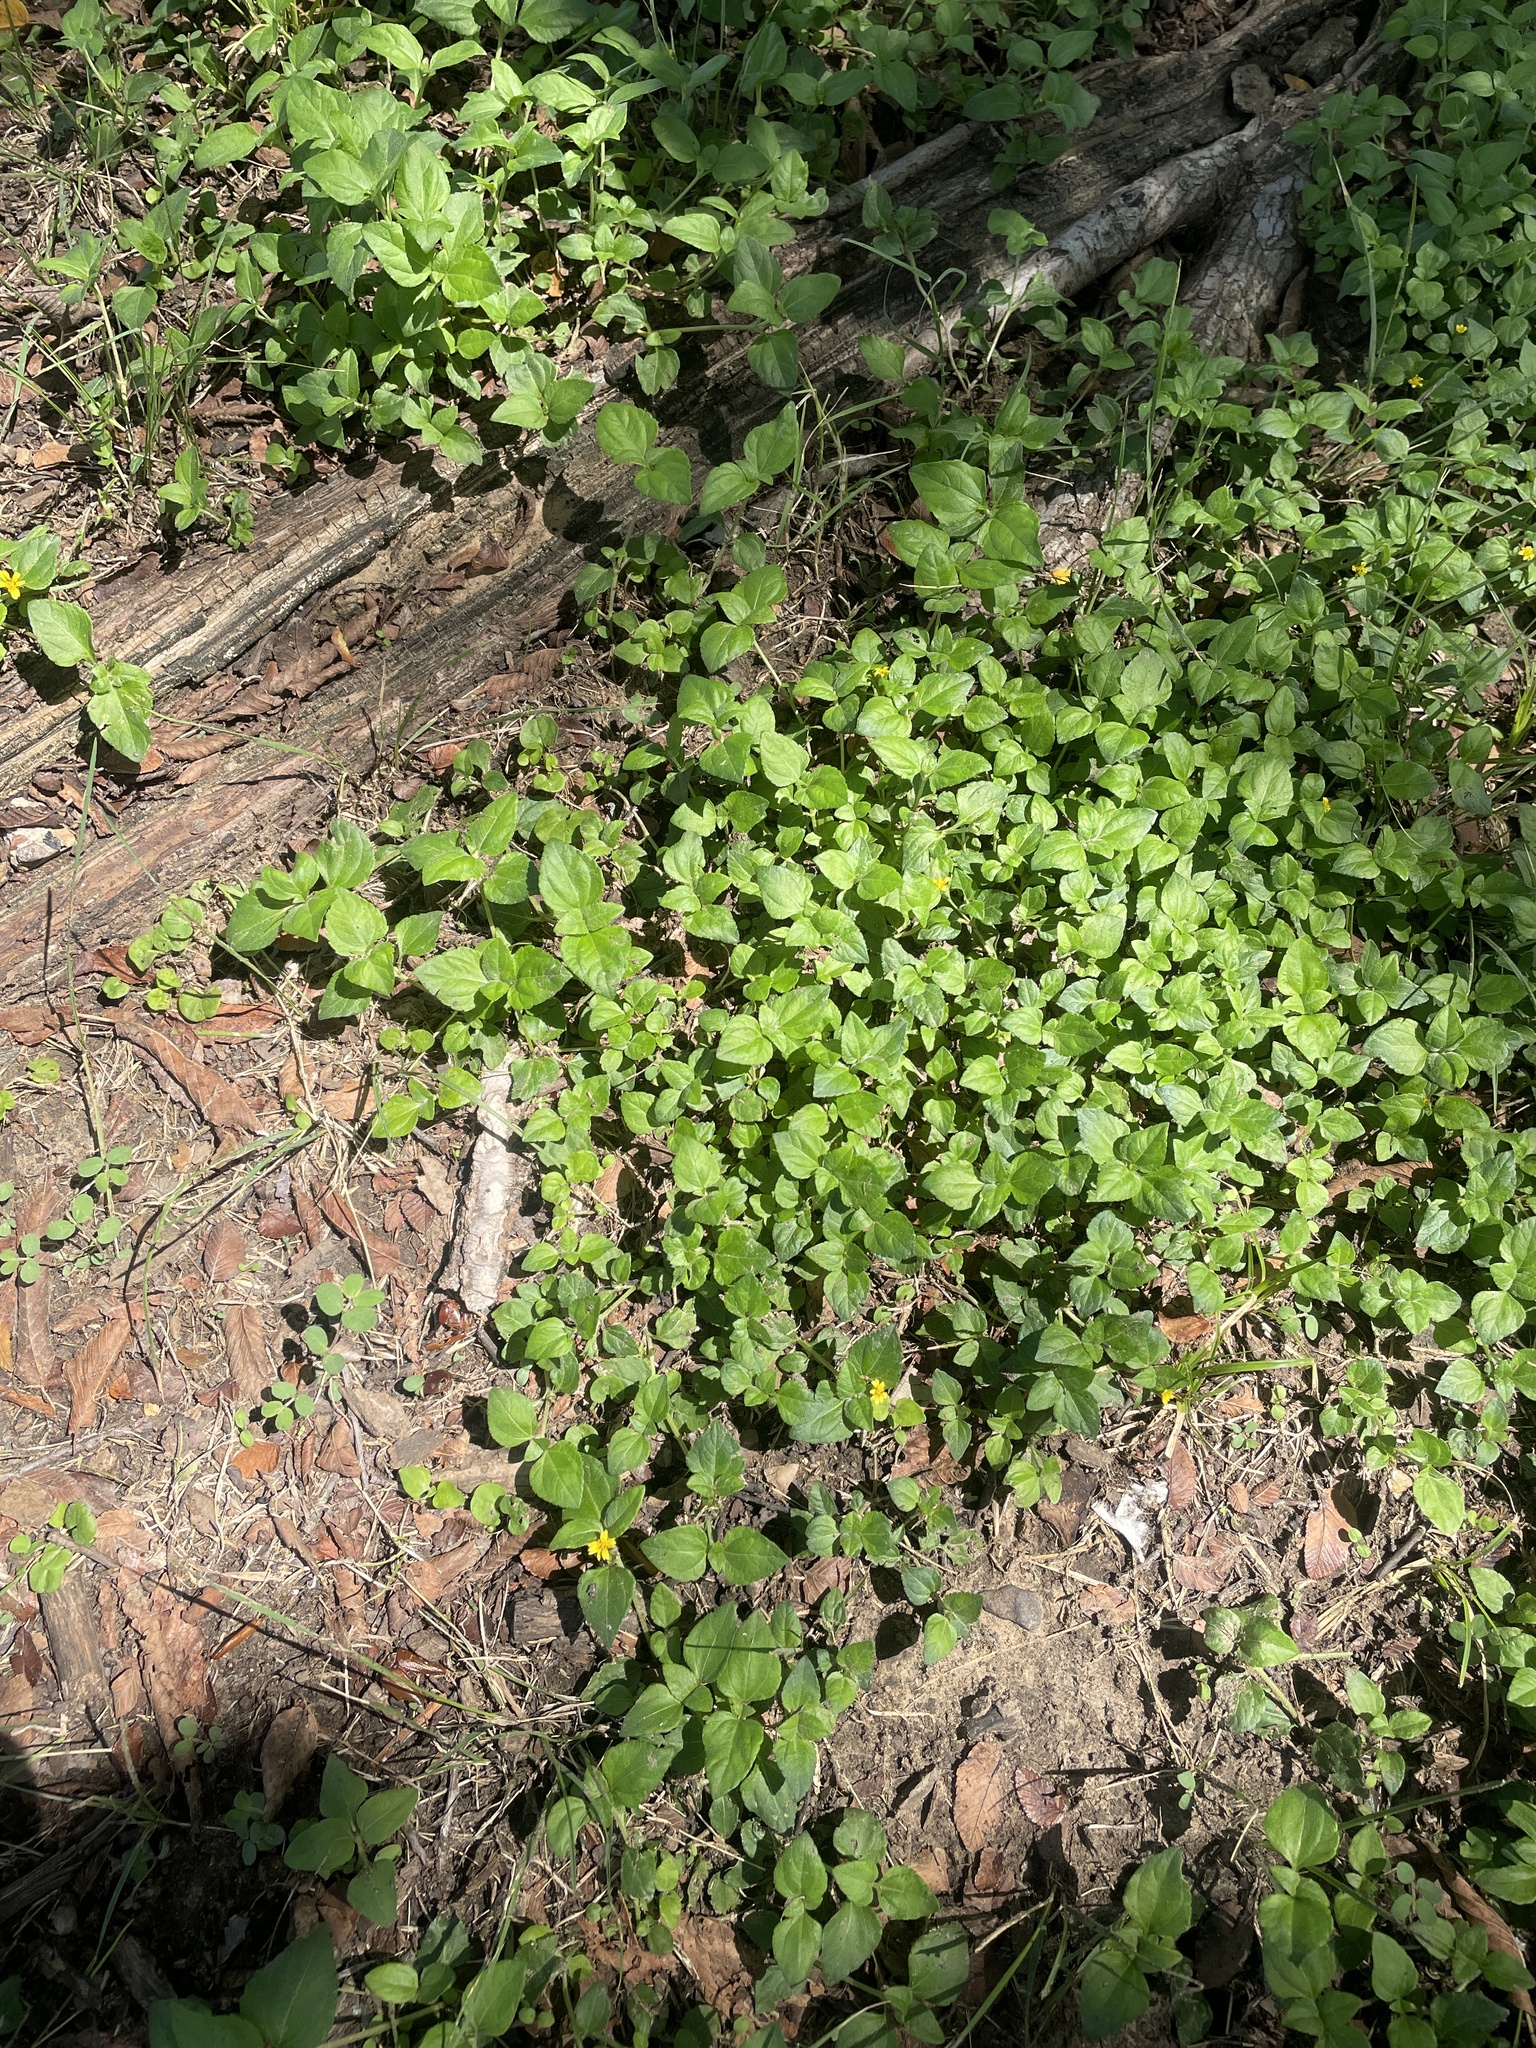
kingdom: Plantae
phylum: Tracheophyta
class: Magnoliopsida
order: Asterales
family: Asteraceae
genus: Calyptocarpus
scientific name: Calyptocarpus vialis
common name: Straggler daisy
